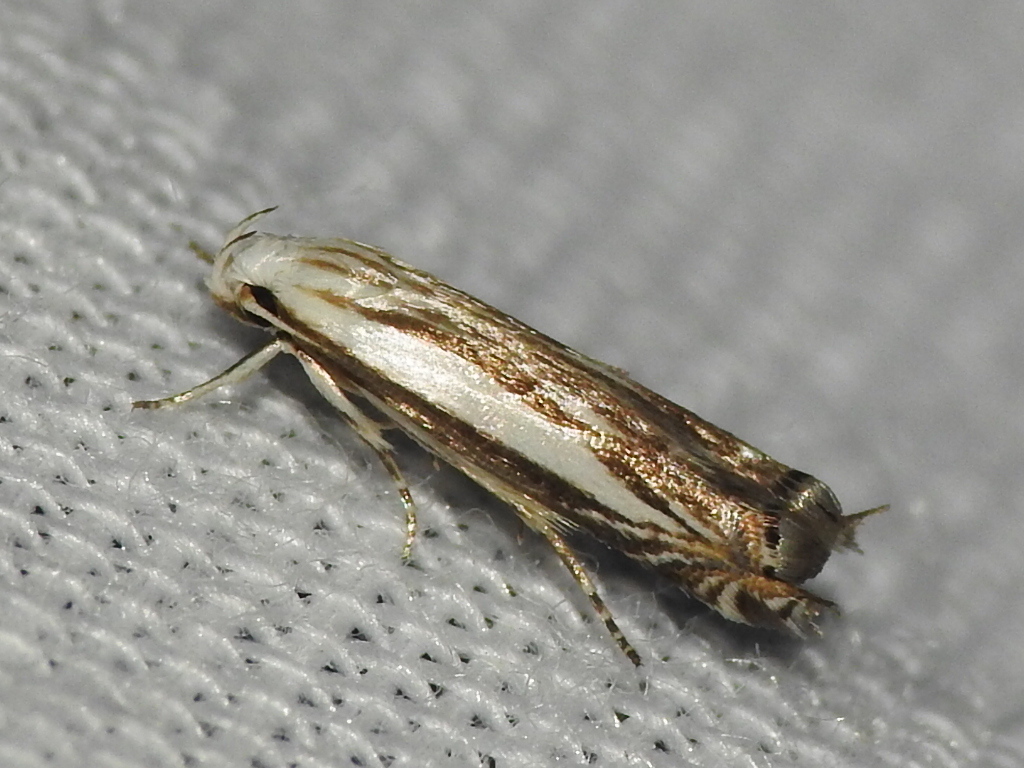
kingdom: Animalia
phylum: Arthropoda
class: Insecta
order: Lepidoptera
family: Gelechiidae
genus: Polyhymno
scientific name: Polyhymno luteostrigella
